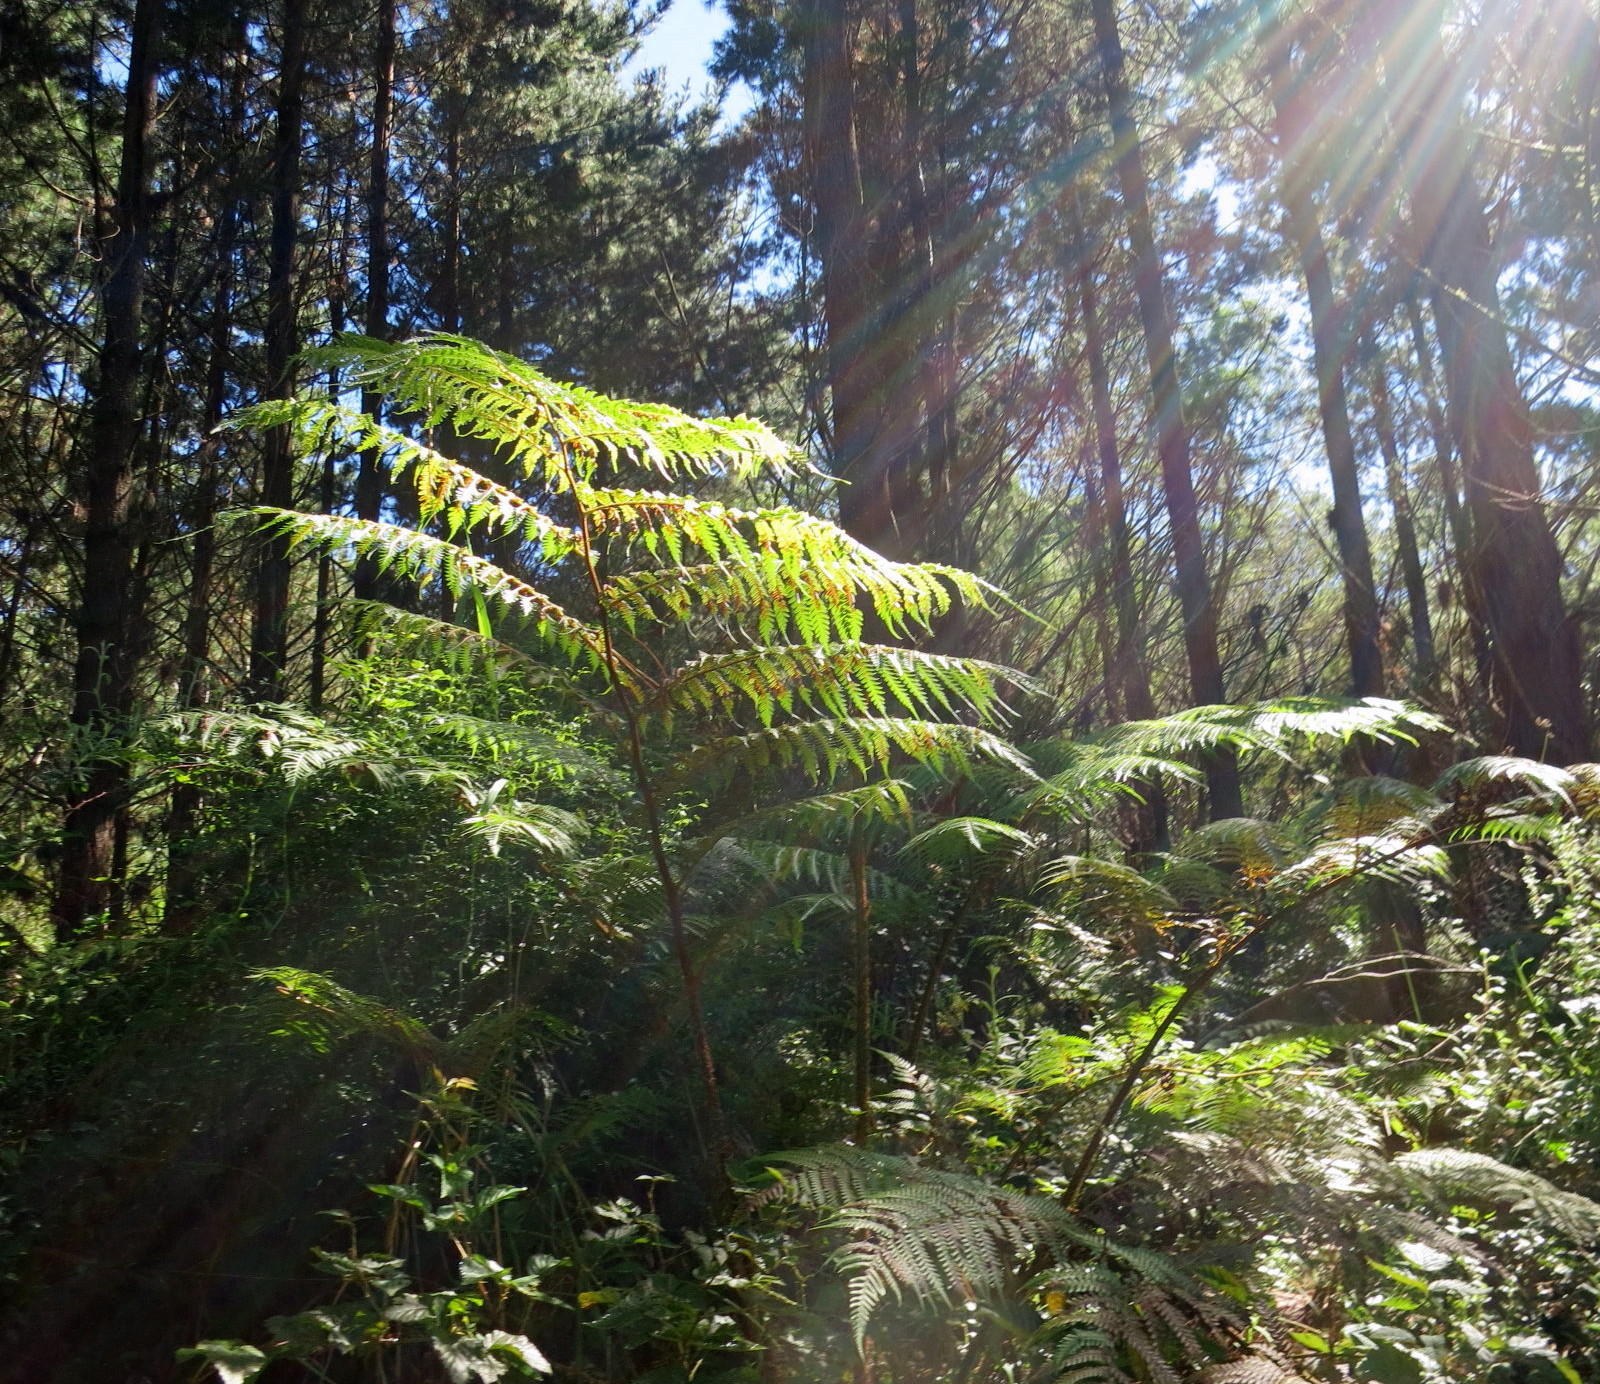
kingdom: Plantae
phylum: Tracheophyta
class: Polypodiopsida
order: Cyatheales
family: Cyatheaceae
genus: Sphaeropteris
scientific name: Sphaeropteris cooperi
